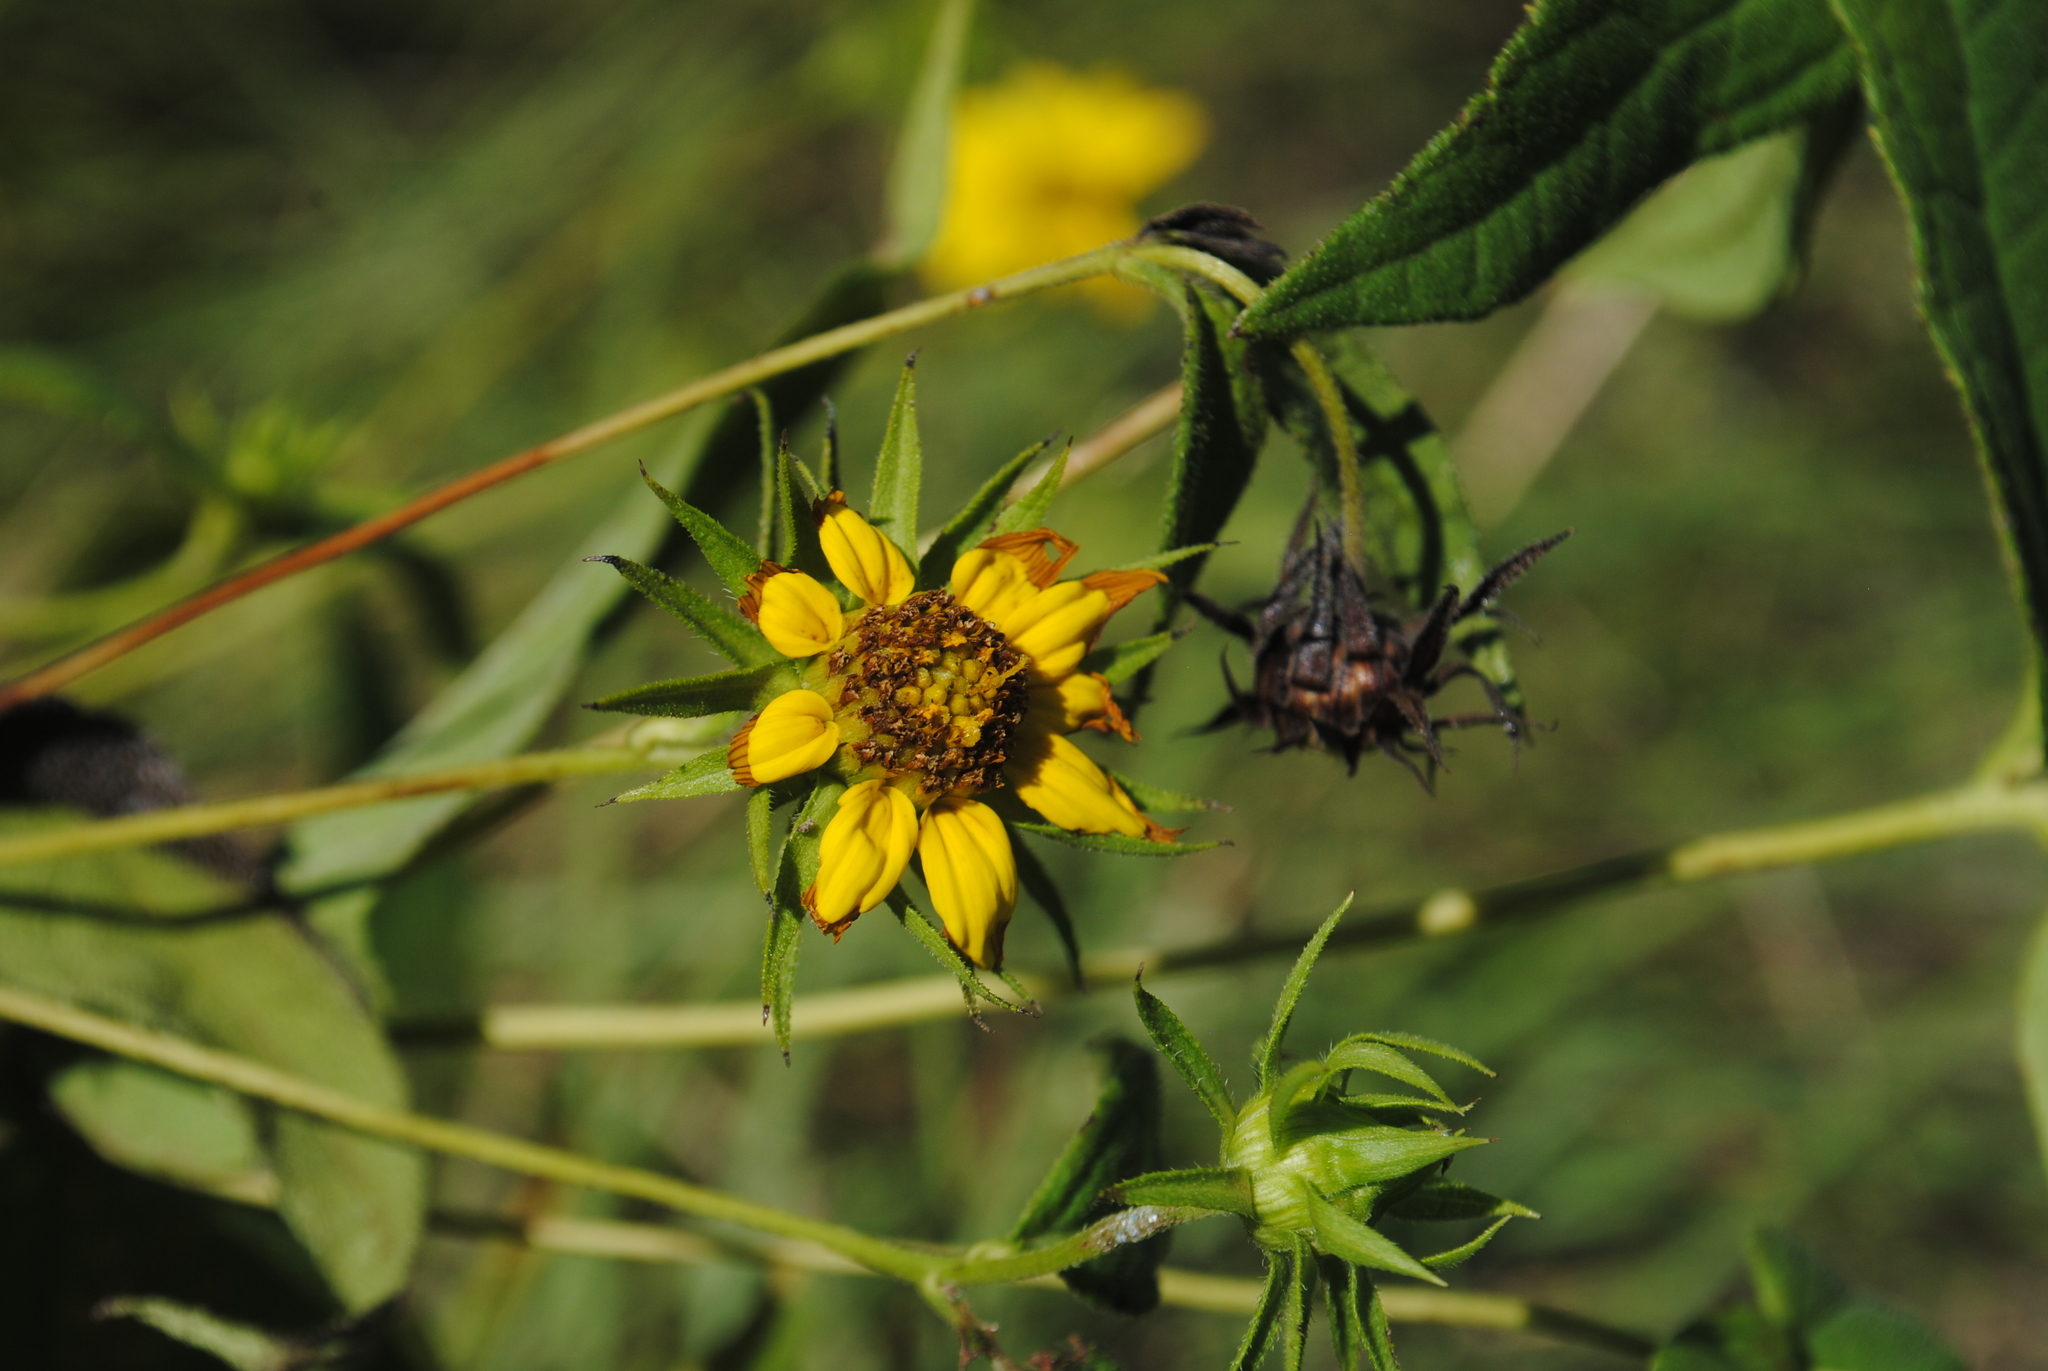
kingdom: Plantae
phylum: Tracheophyta
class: Magnoliopsida
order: Asterales
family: Asteraceae
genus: Helianthus
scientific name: Helianthus divaricatus
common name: Divergent sunflower
